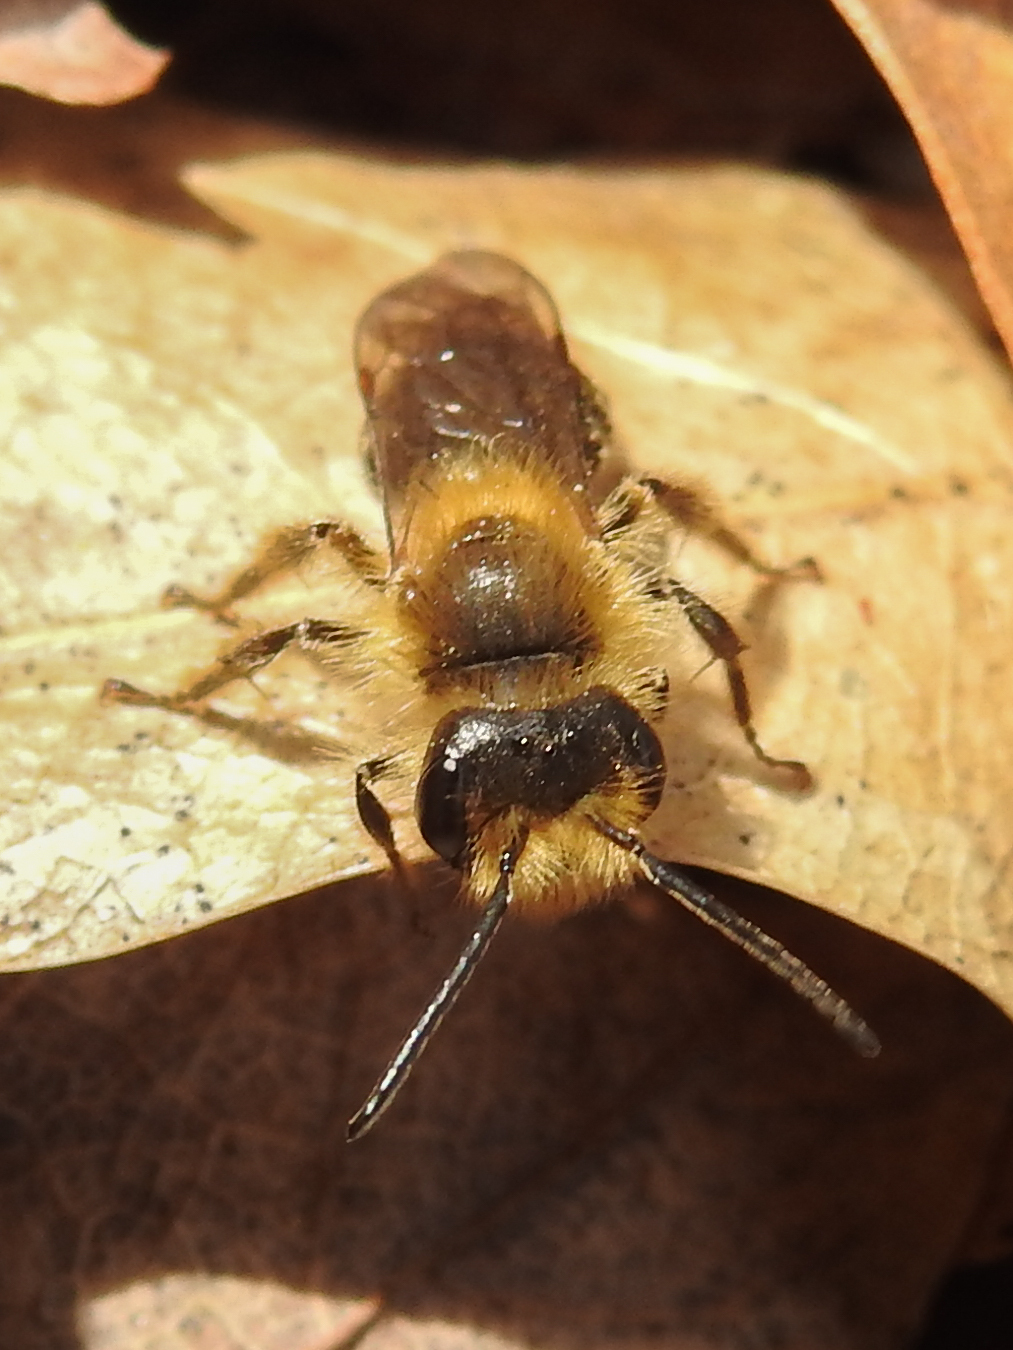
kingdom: Animalia
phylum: Arthropoda
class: Insecta
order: Hymenoptera
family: Andrenidae
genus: Andrena
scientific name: Andrena dunningi
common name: Dunning's miner
